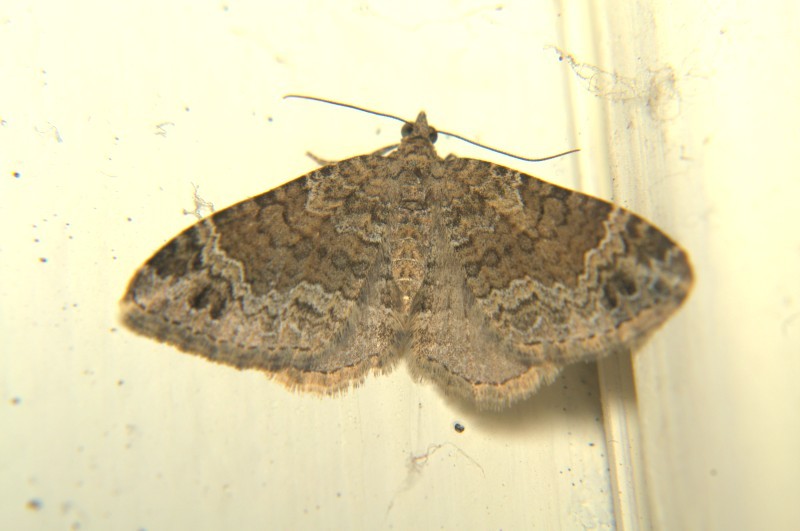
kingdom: Animalia
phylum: Arthropoda
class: Insecta
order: Lepidoptera
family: Geometridae
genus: Xanthorhoe
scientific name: Xanthorhoe saturata
